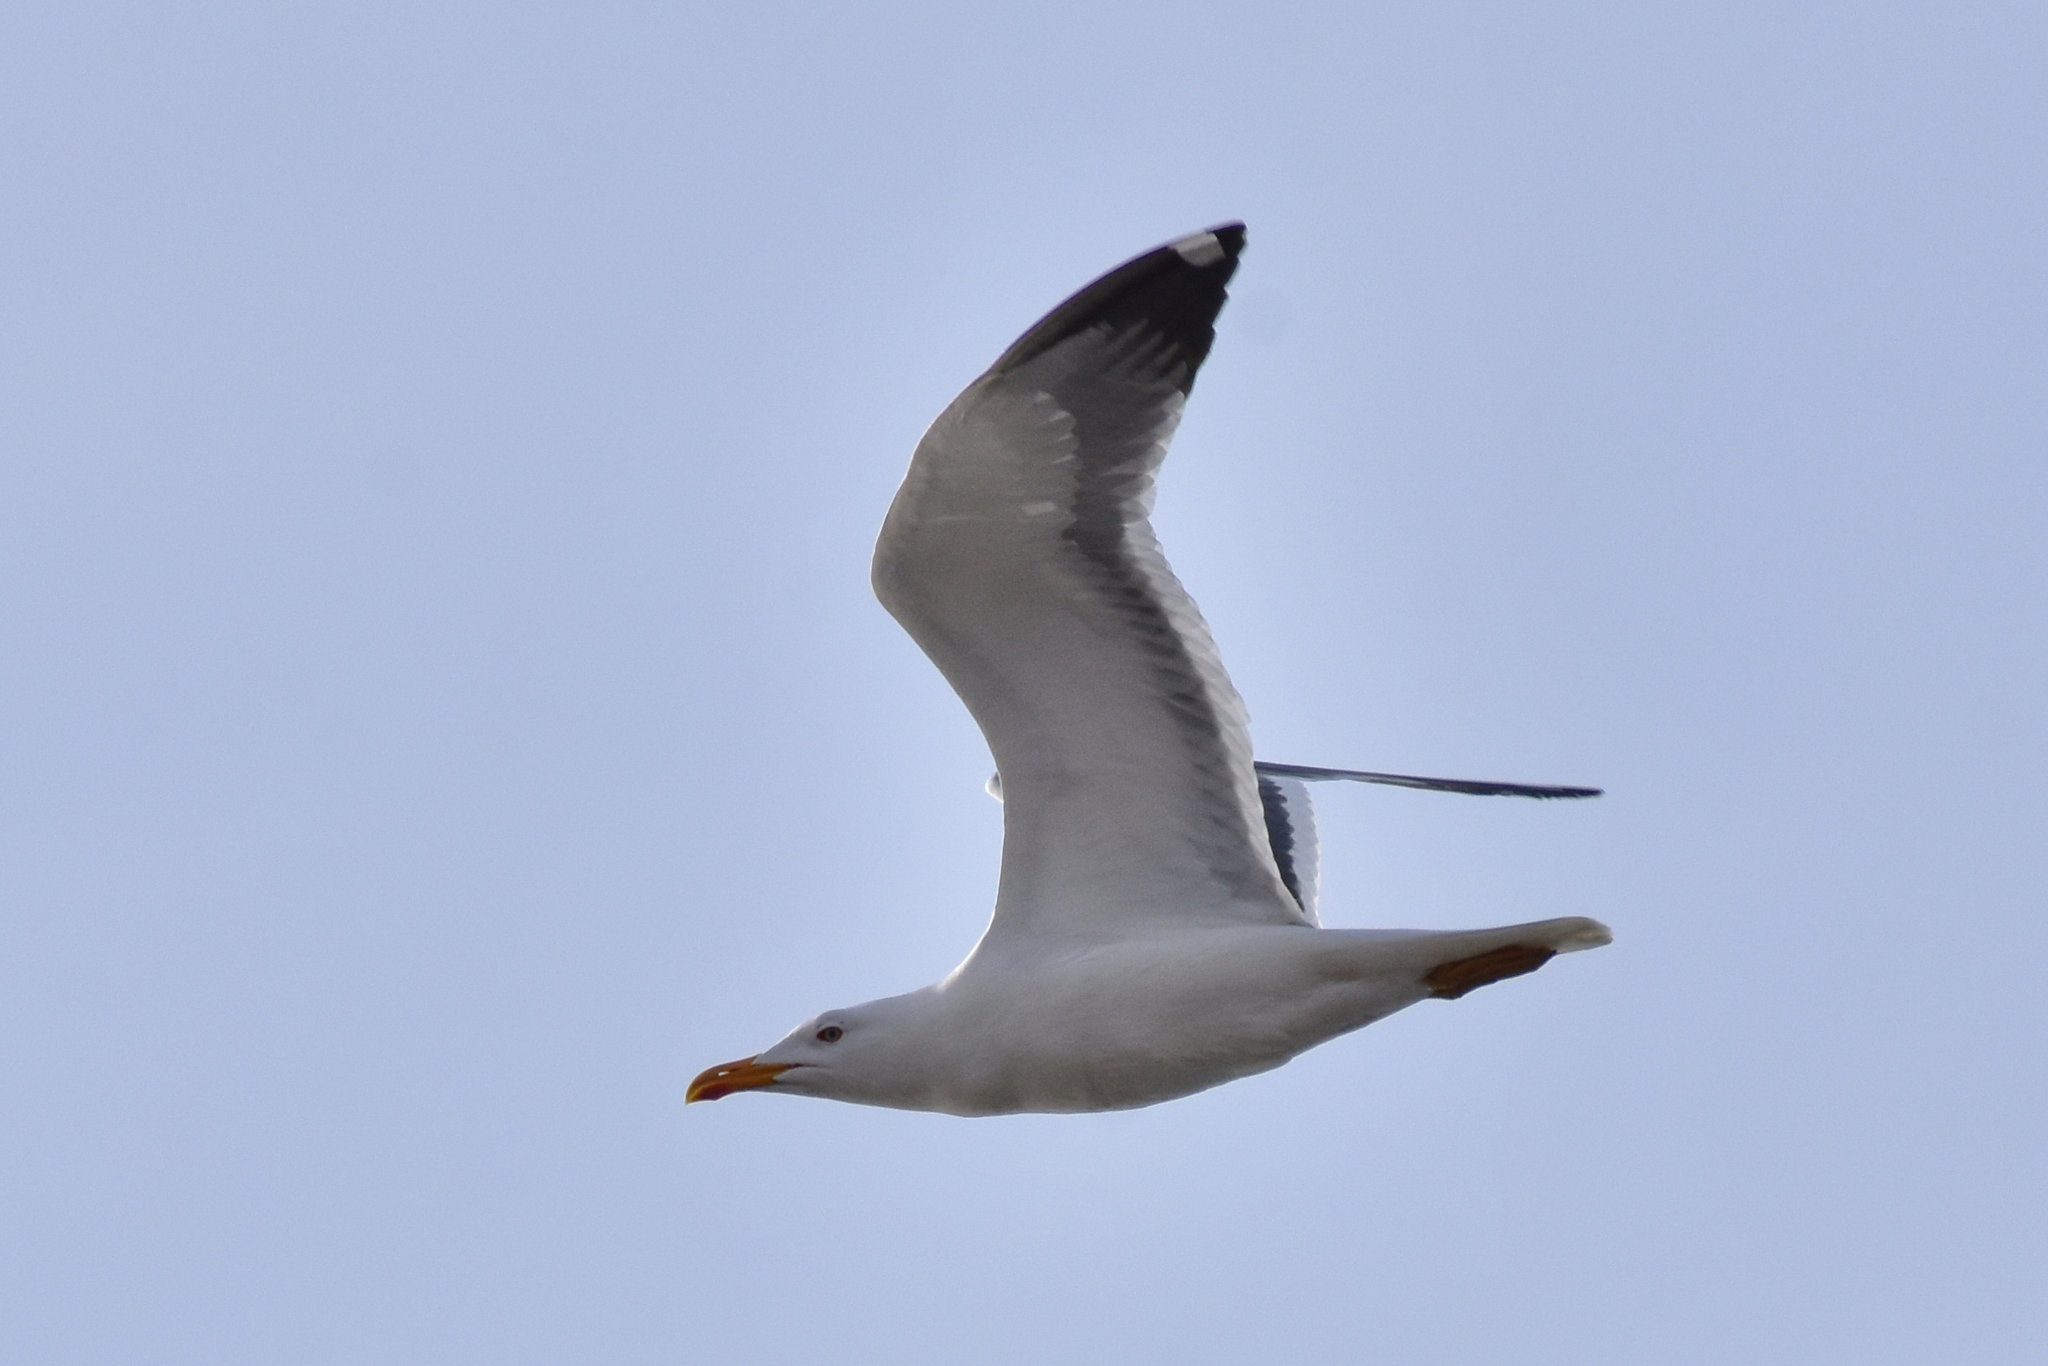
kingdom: Animalia
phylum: Chordata
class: Aves
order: Charadriiformes
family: Laridae
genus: Larus
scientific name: Larus fuscus
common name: Lesser black-backed gull
